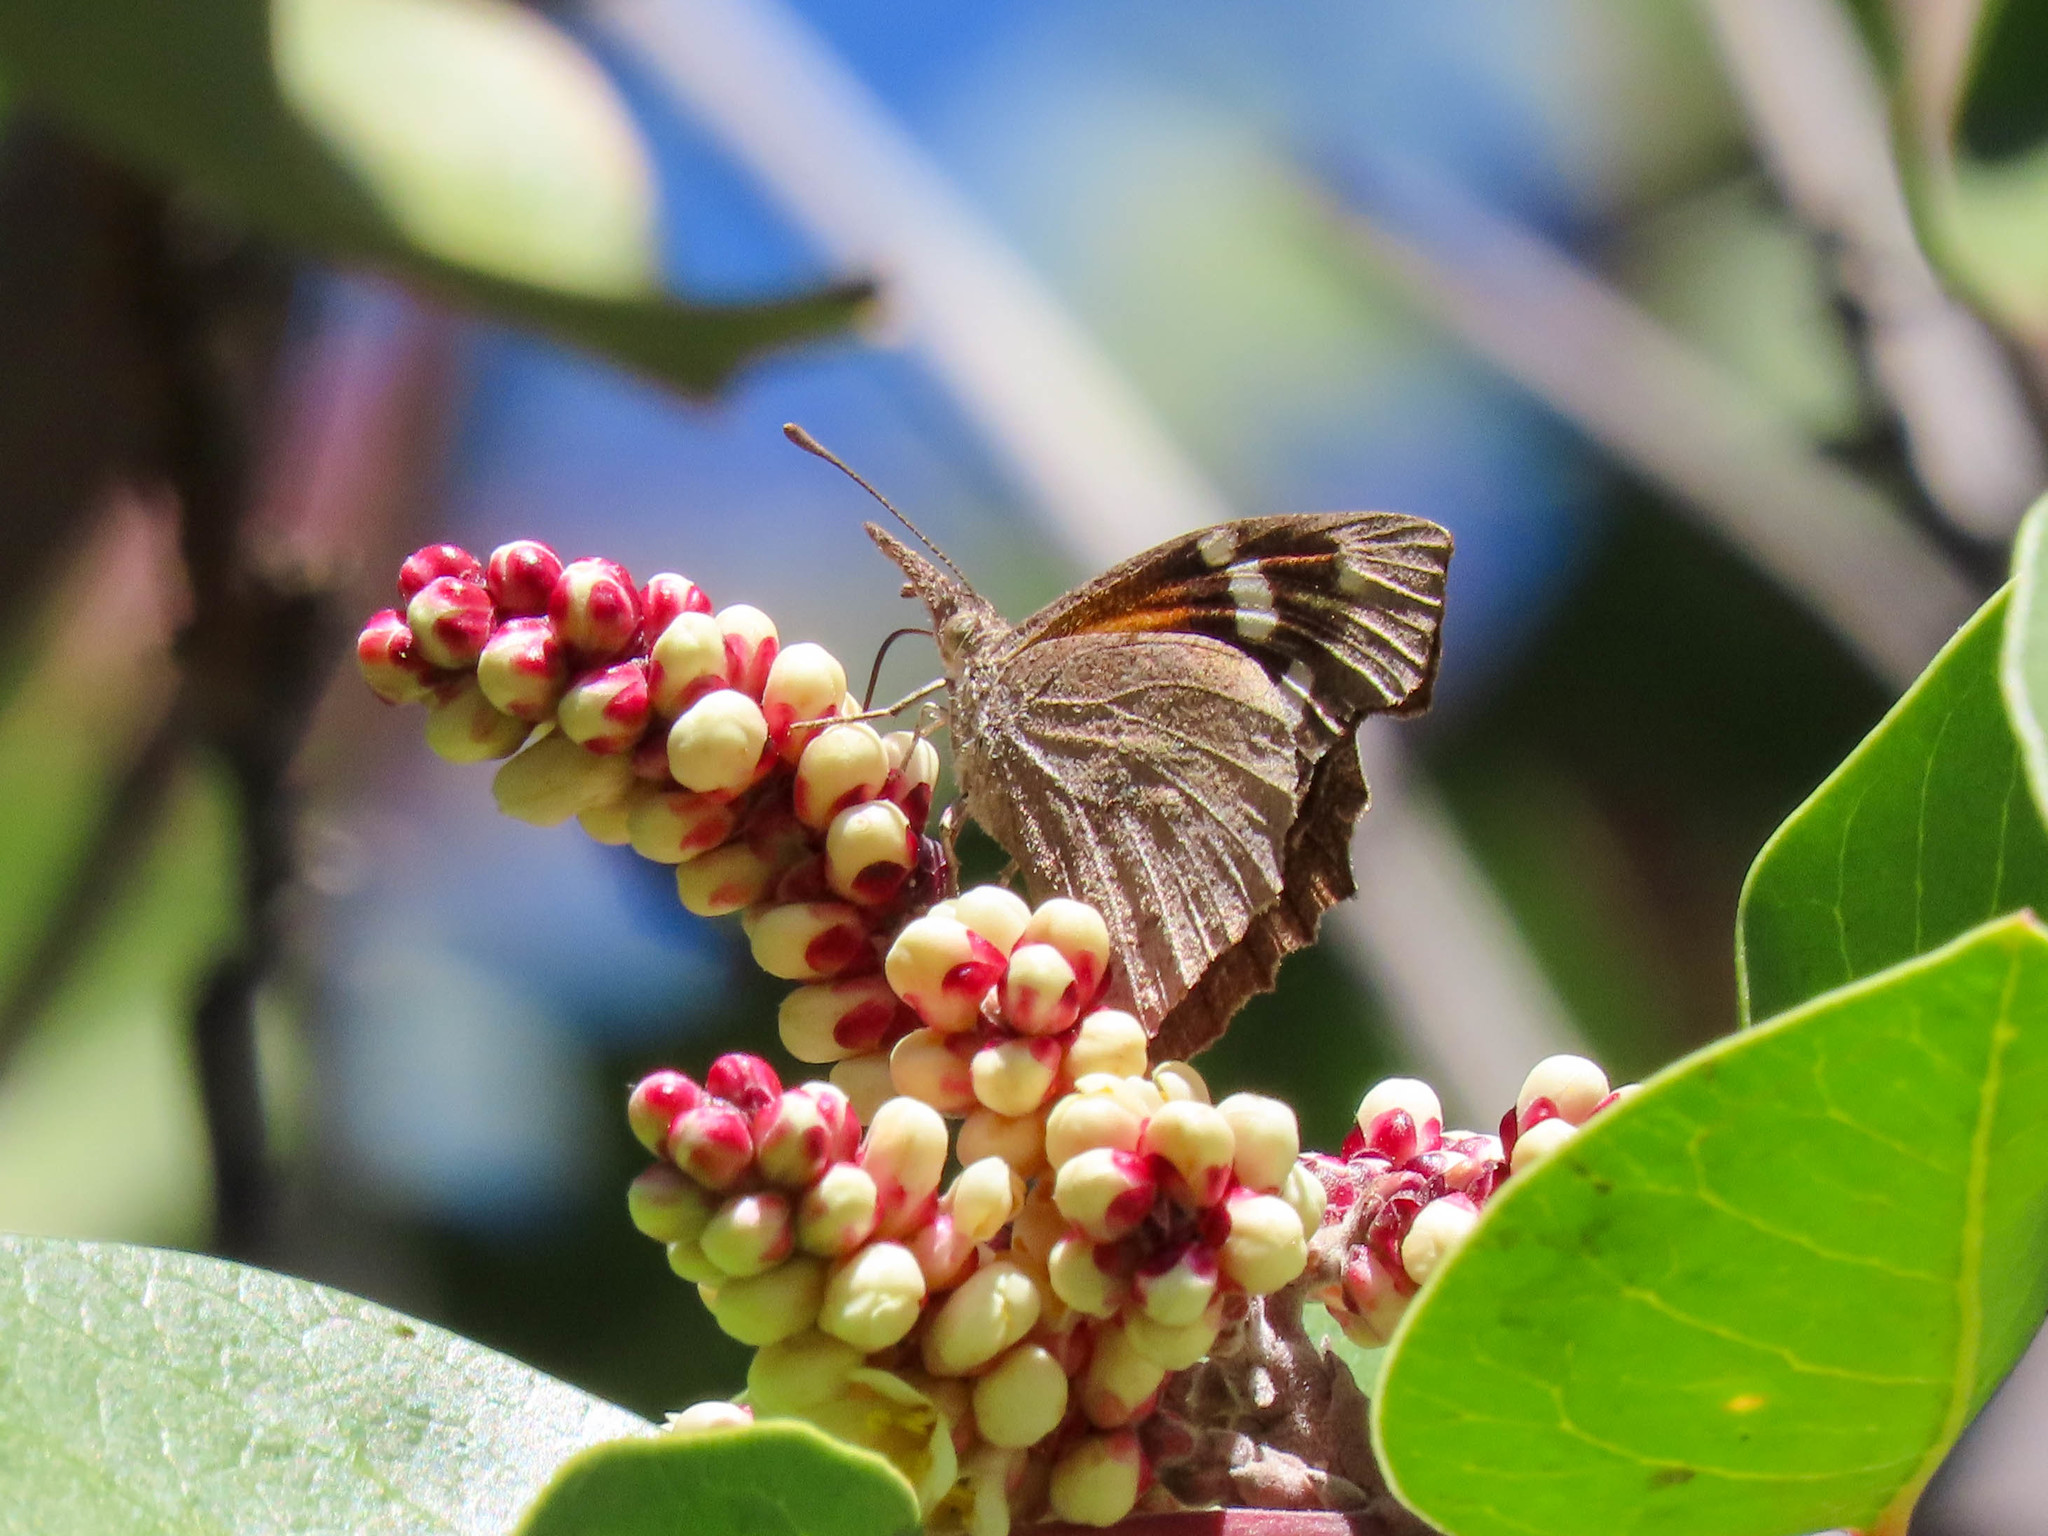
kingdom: Animalia
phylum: Arthropoda
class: Insecta
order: Lepidoptera
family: Nymphalidae
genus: Libytheana
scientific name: Libytheana carinenta
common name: American snout
